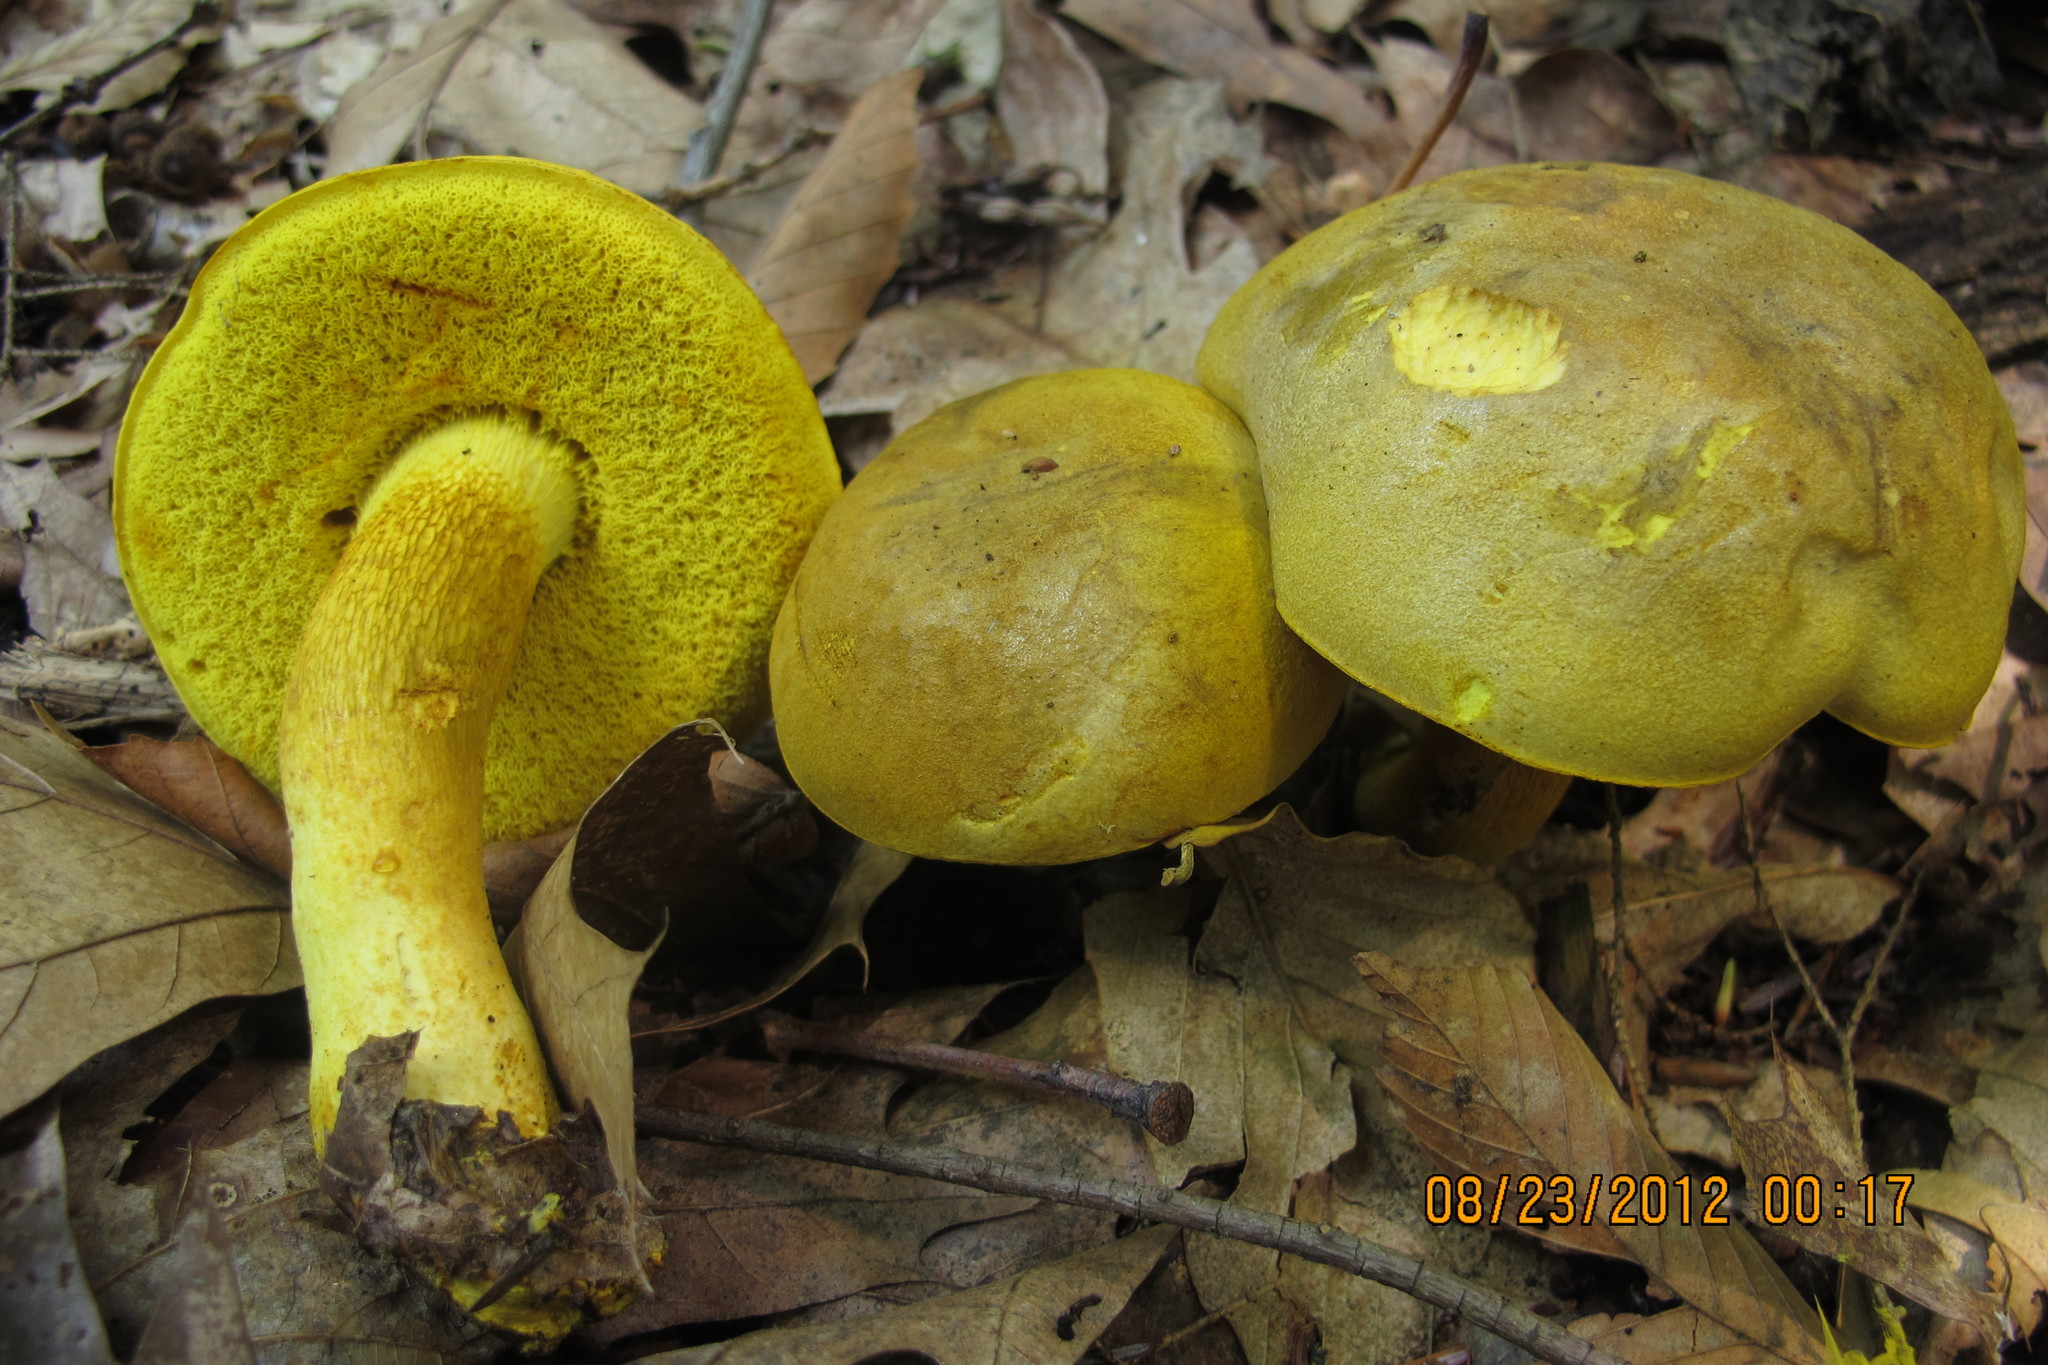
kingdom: Fungi
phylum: Basidiomycota
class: Agaricomycetes
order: Boletales
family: Boletaceae
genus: Retiboletus
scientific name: Retiboletus ornatipes
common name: Ornate-stalked bolete
